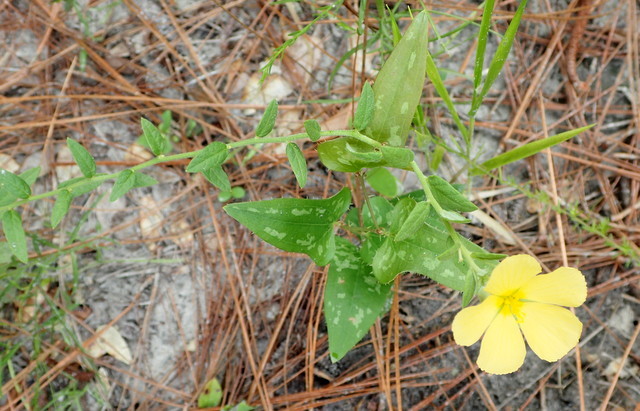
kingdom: Plantae
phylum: Tracheophyta
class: Magnoliopsida
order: Malpighiales
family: Turneraceae
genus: Piriqueta
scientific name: Piriqueta cistoides
